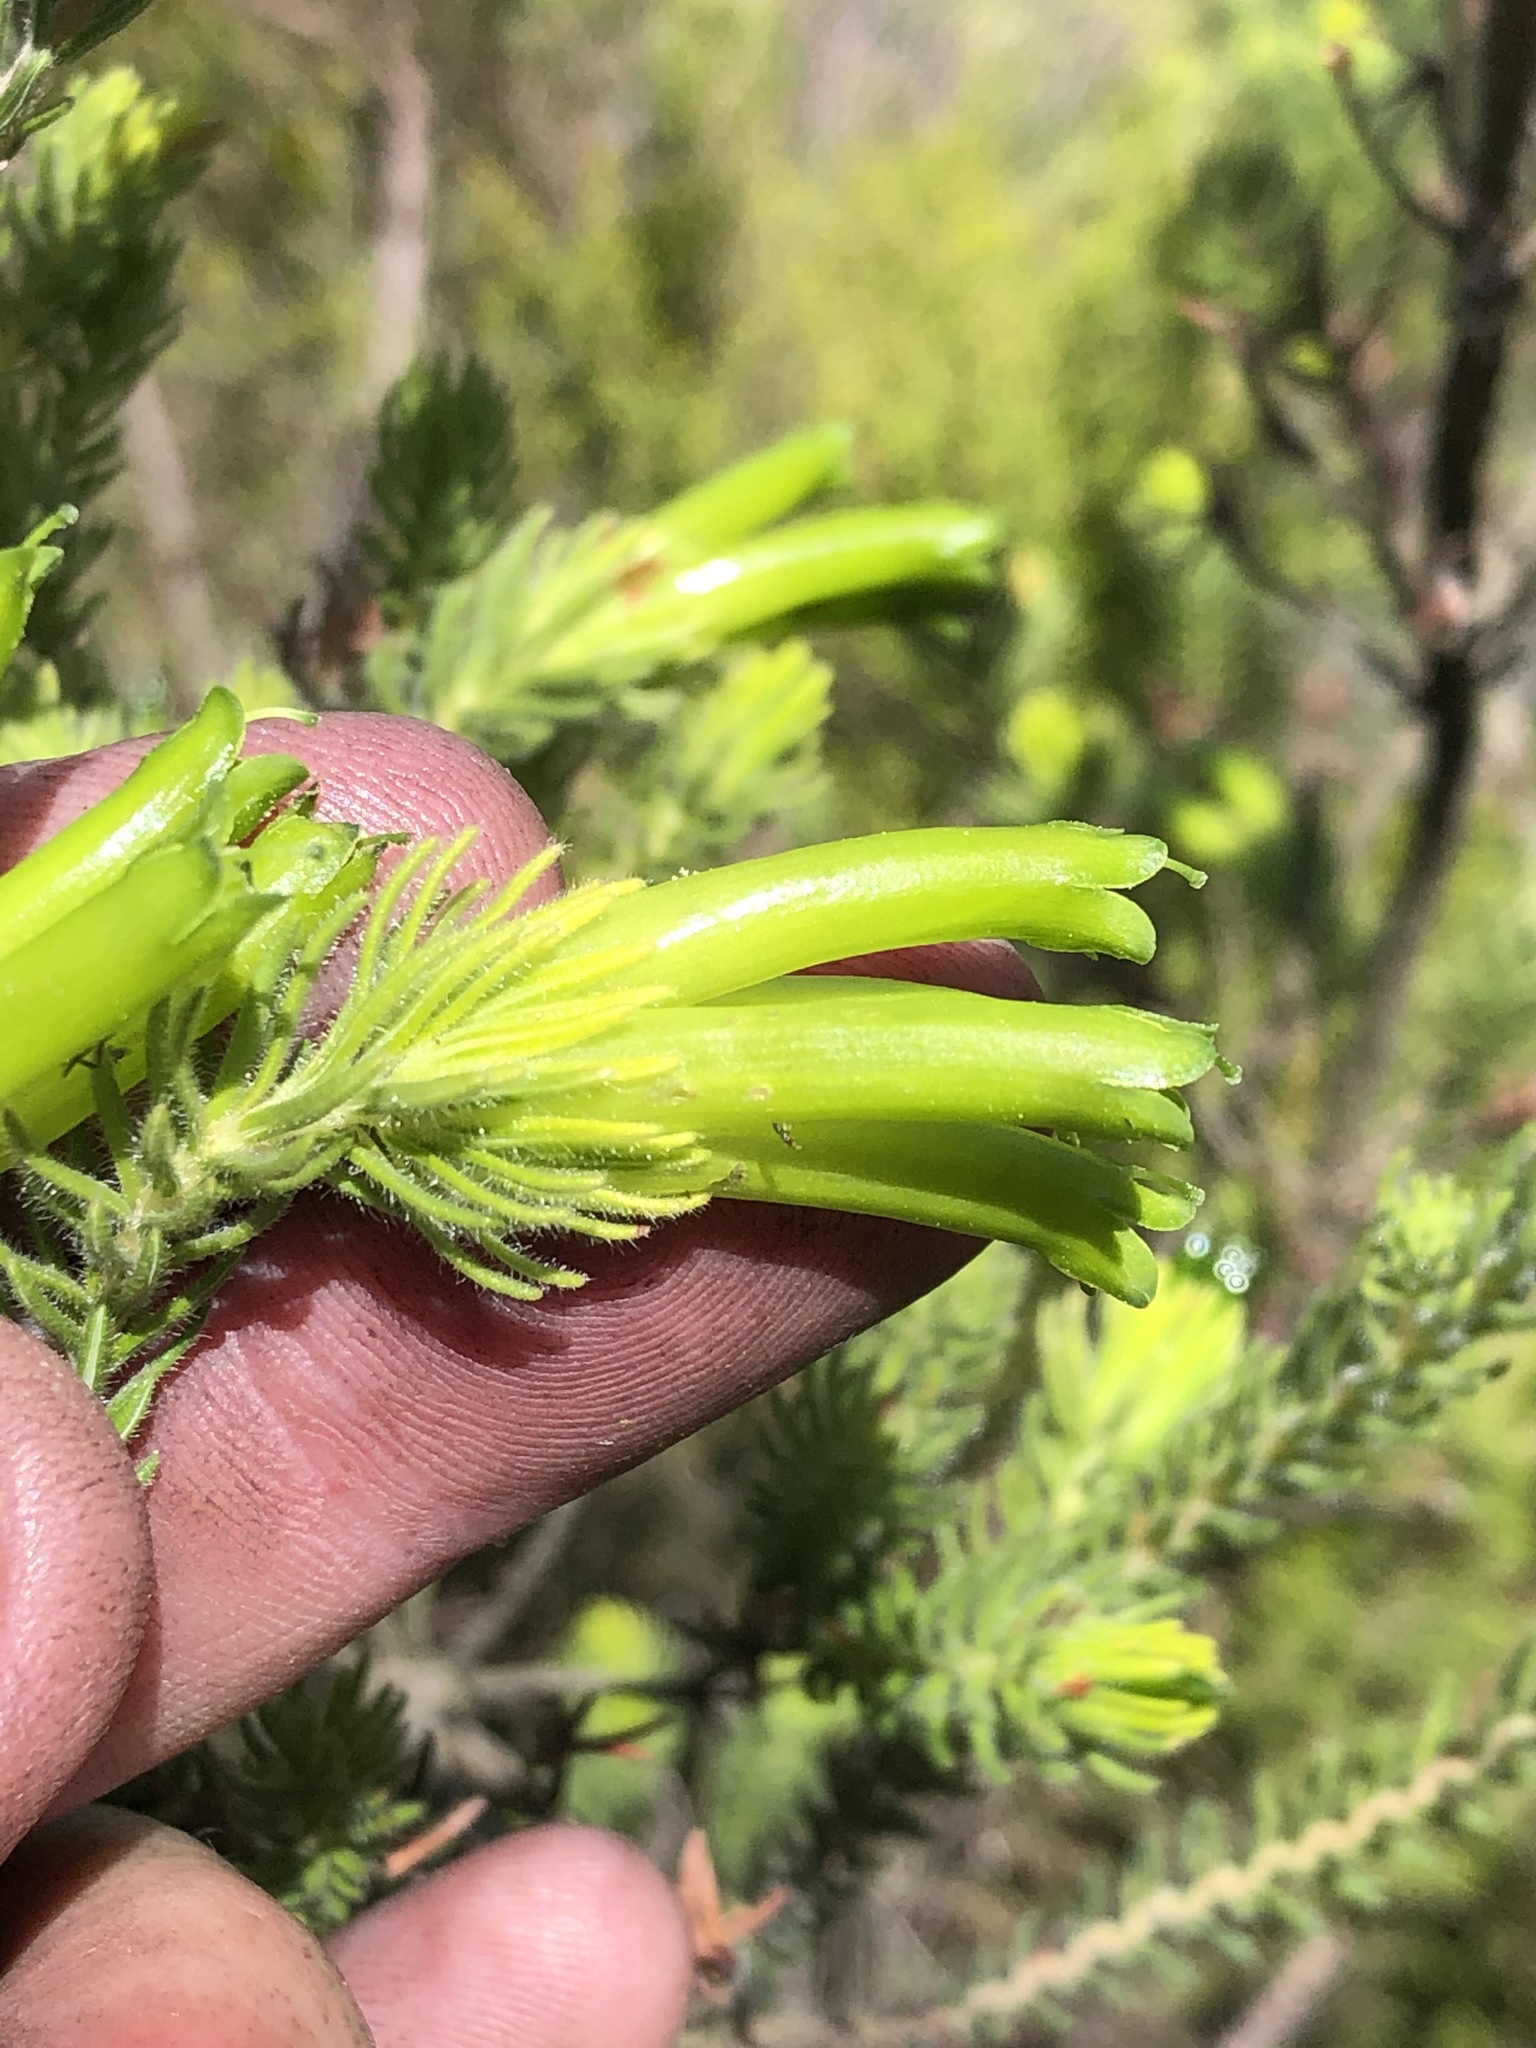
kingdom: Plantae
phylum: Tracheophyta
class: Magnoliopsida
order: Ericales
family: Ericaceae
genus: Erica
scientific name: Erica unicolor
